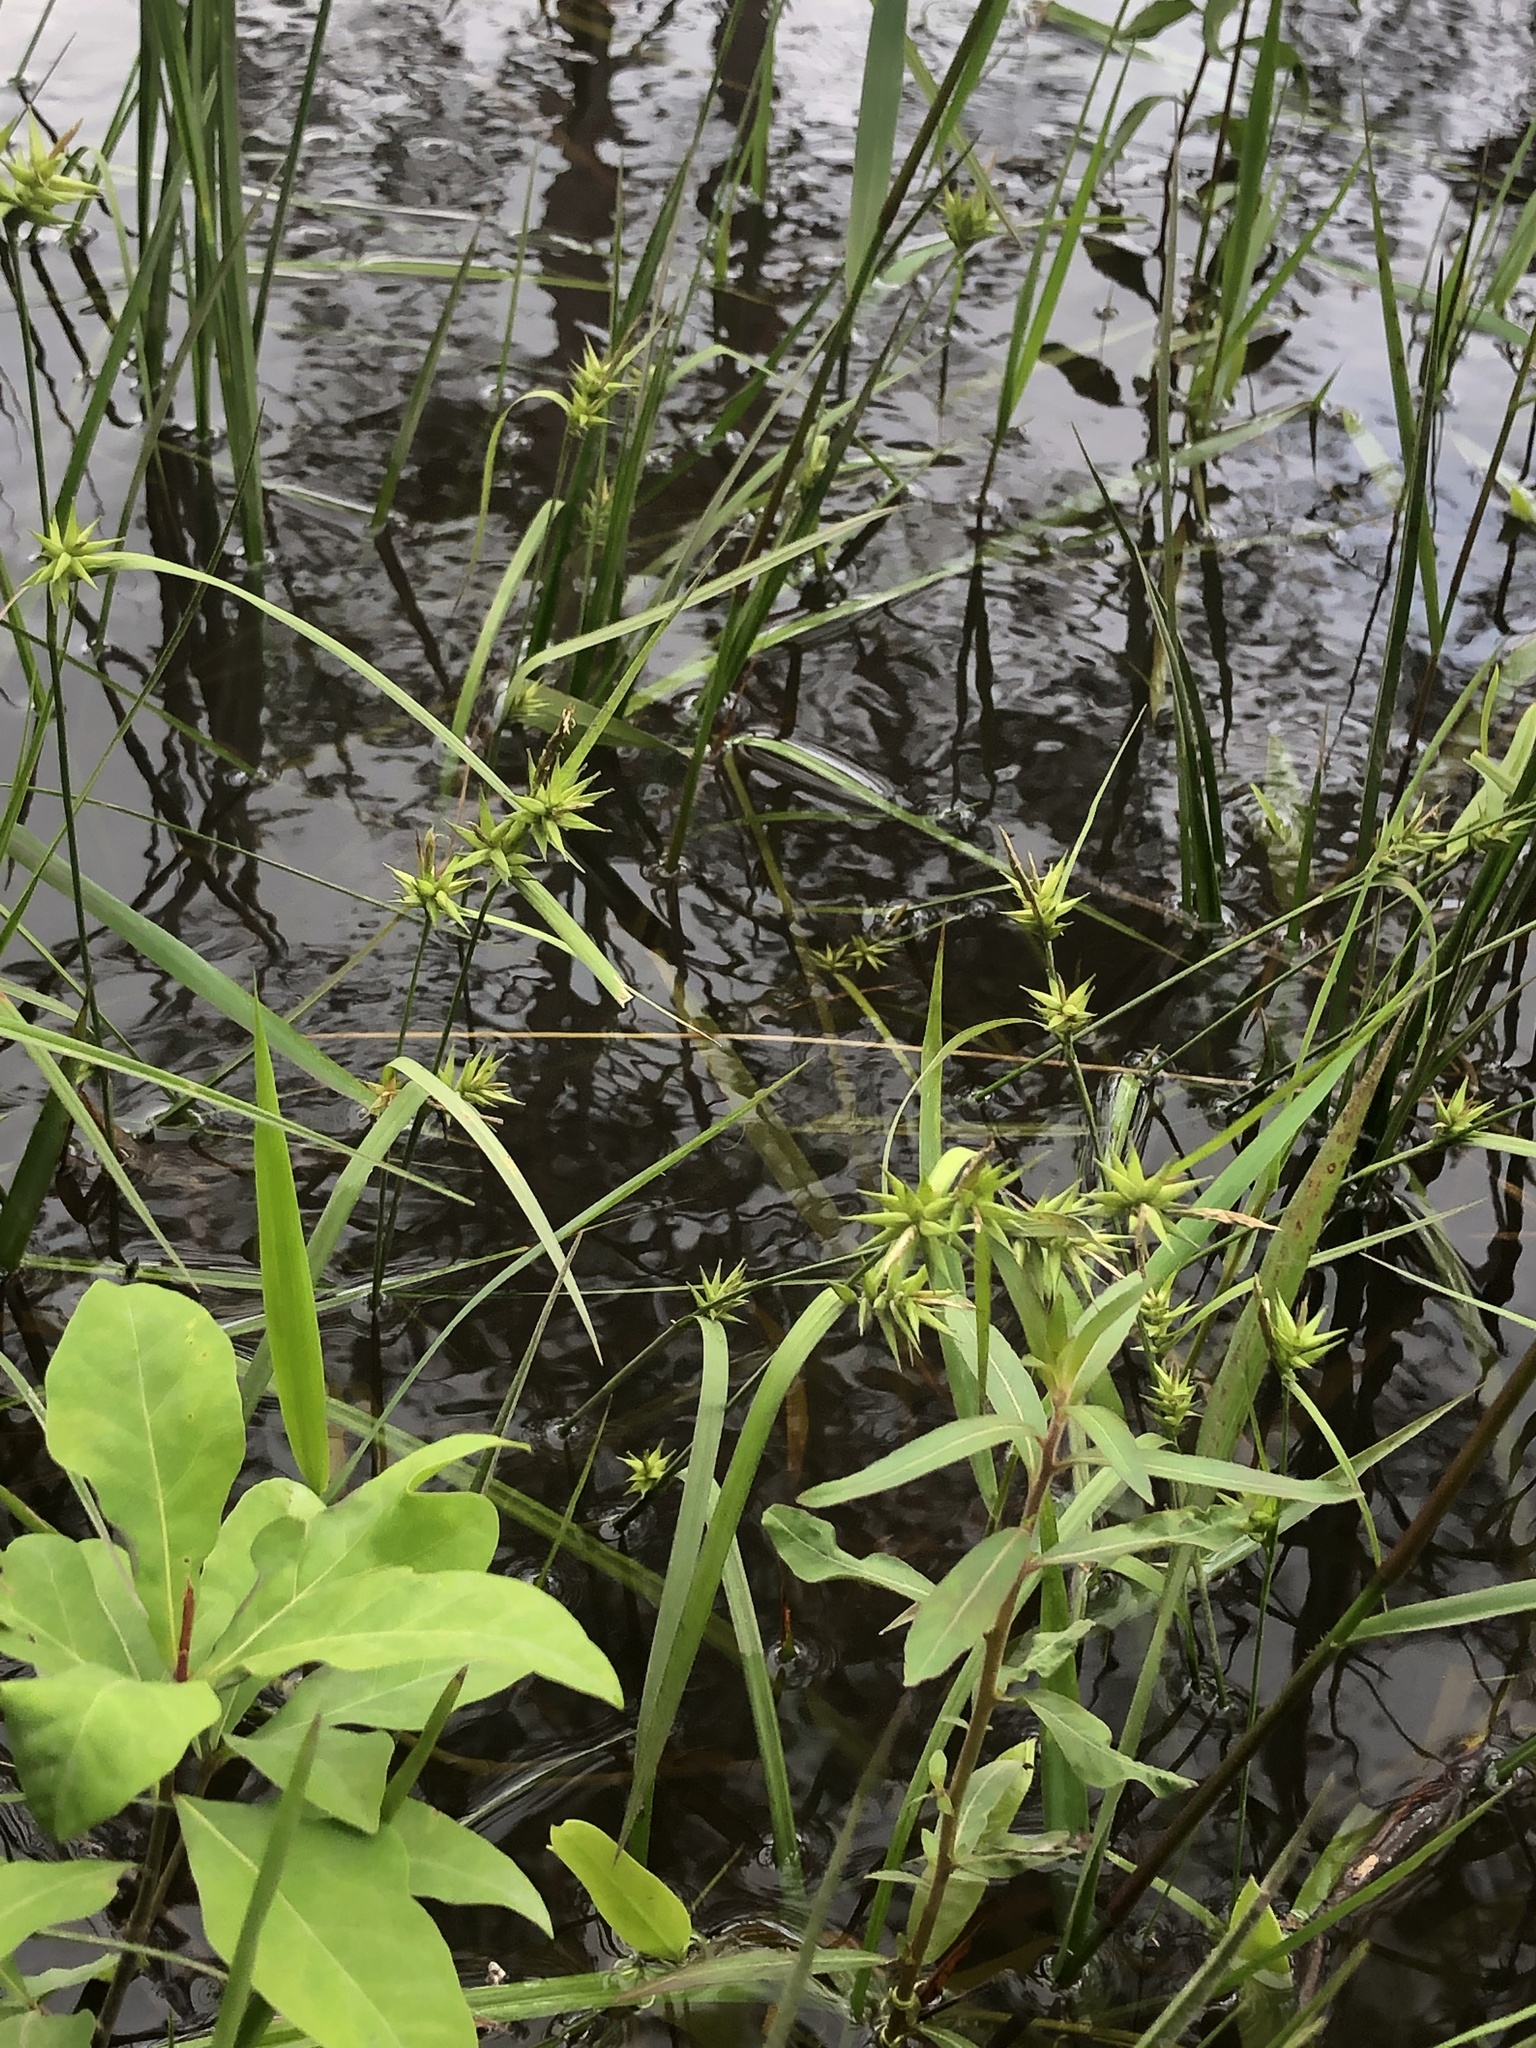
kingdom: Plantae
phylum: Tracheophyta
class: Liliopsida
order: Poales
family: Cyperaceae
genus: Carex
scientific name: Carex lonchocarpa
